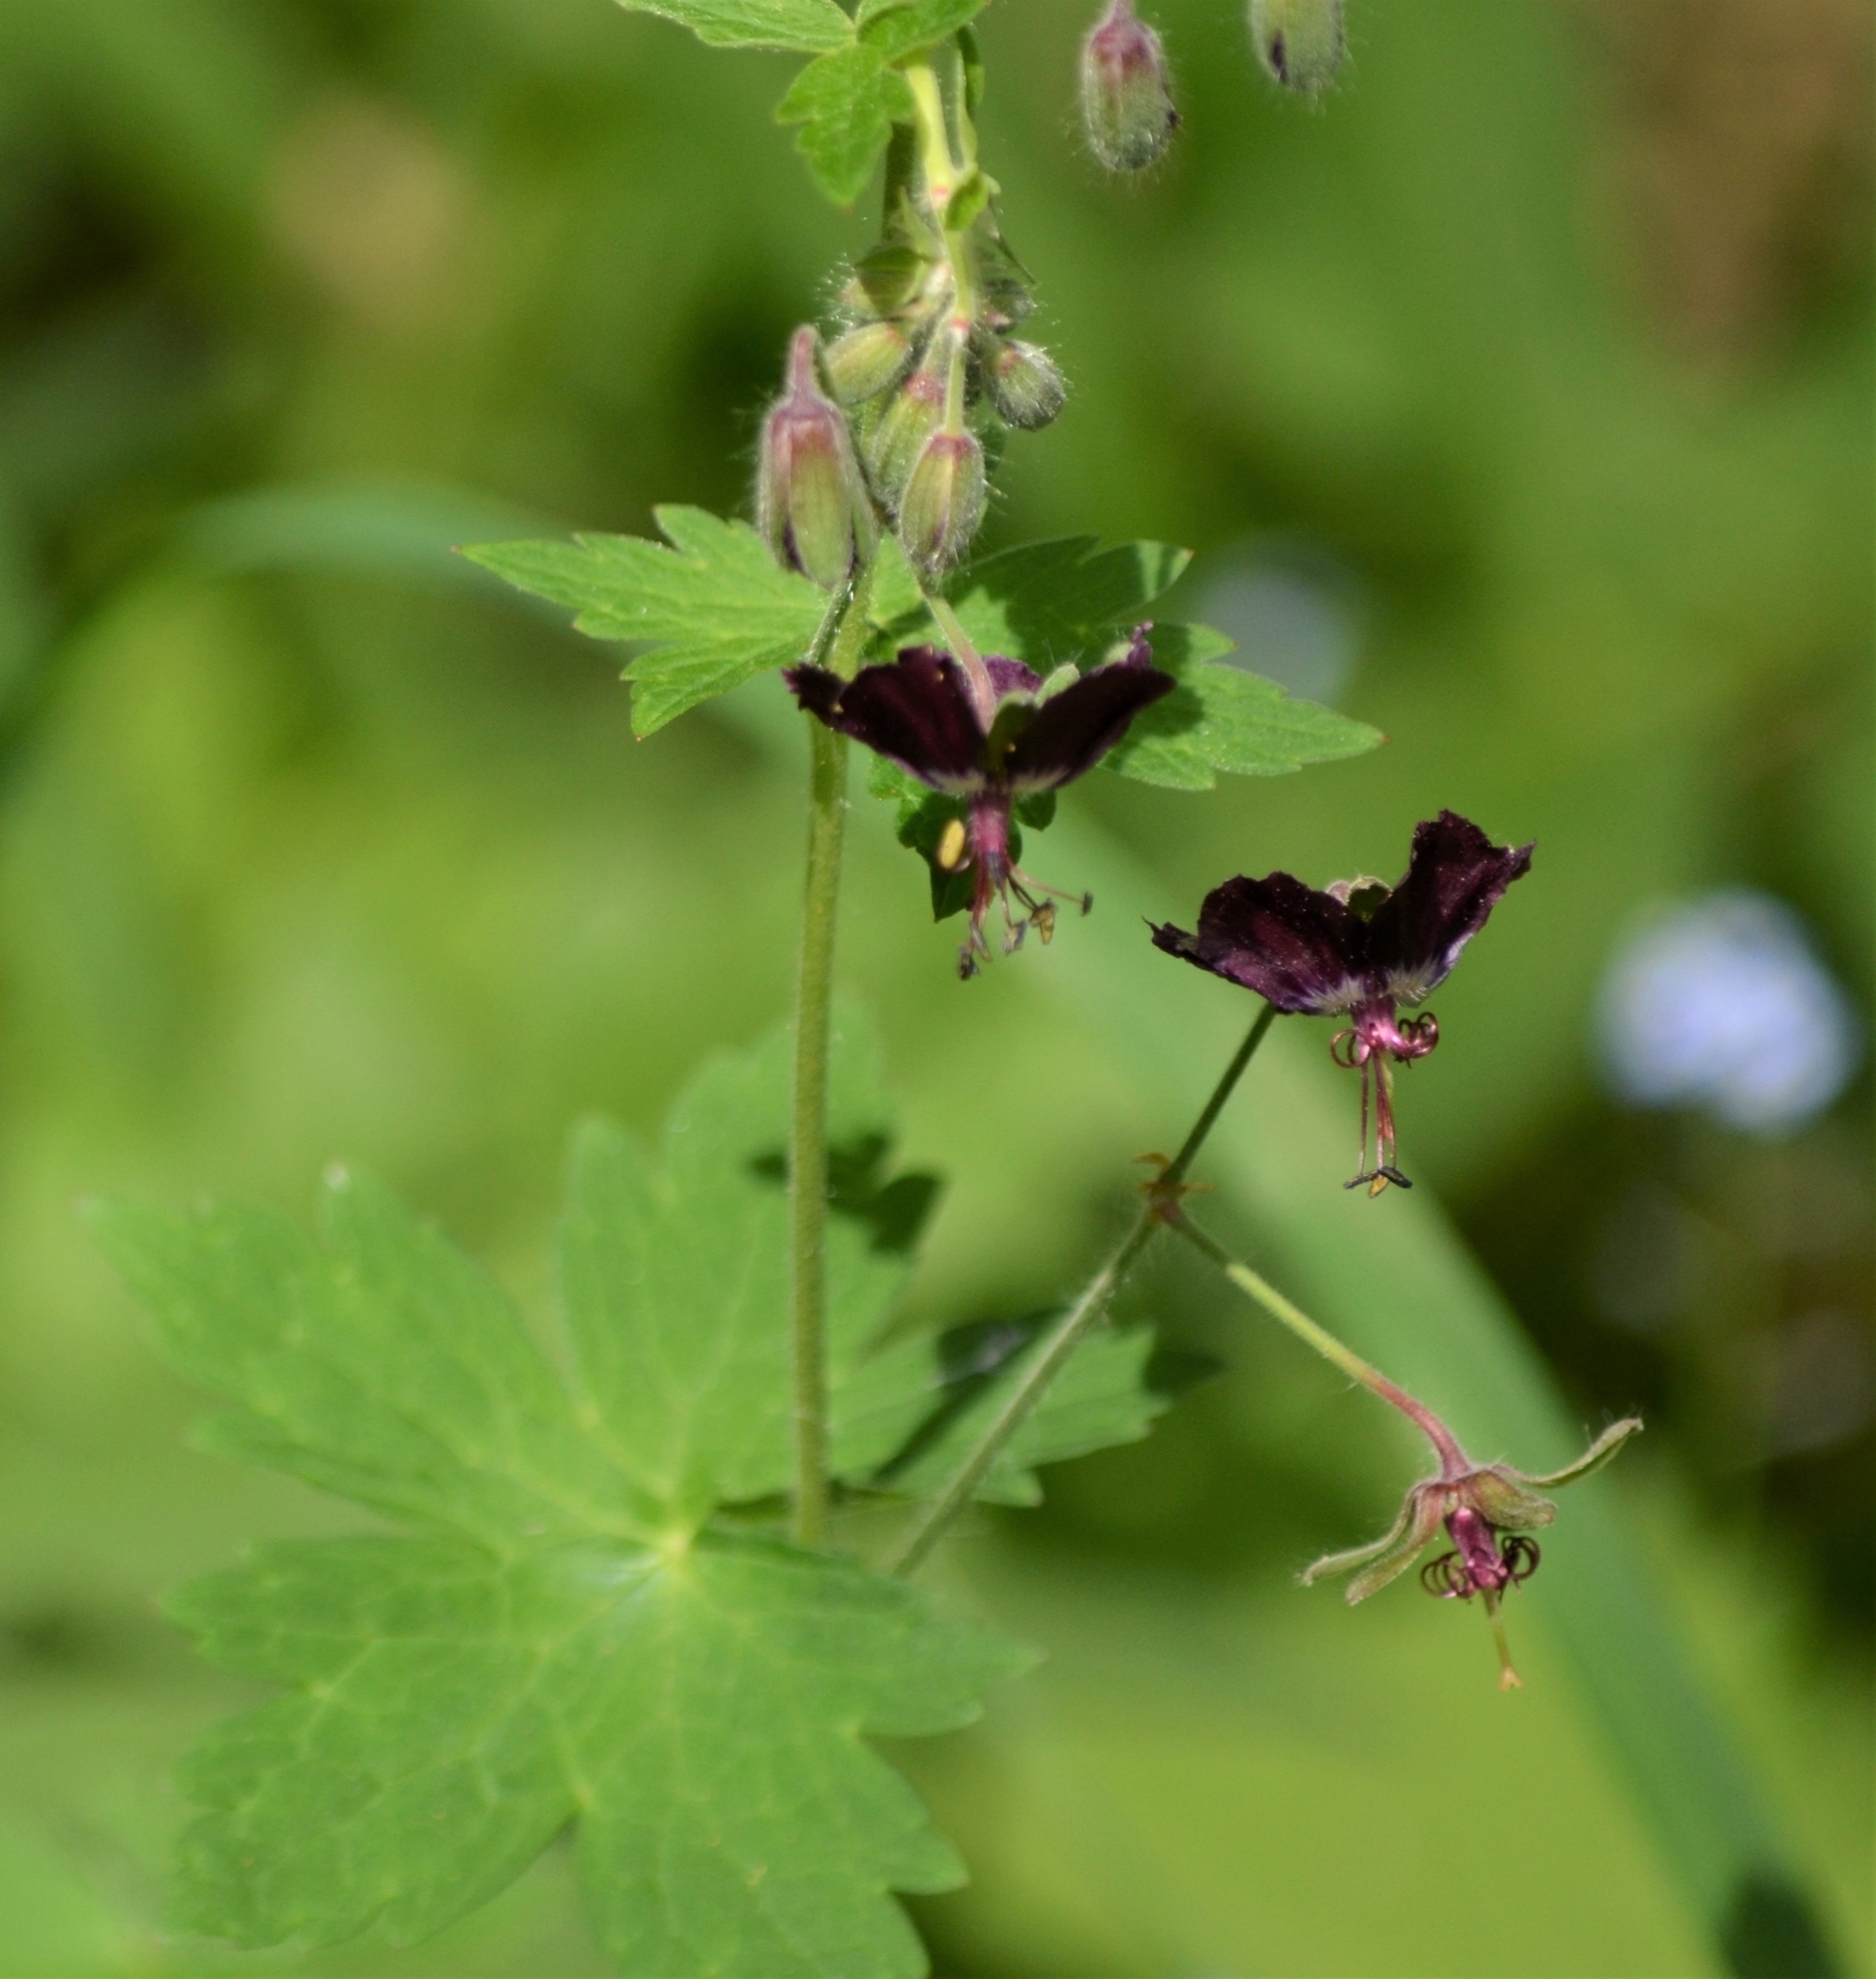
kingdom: Plantae
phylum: Tracheophyta
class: Magnoliopsida
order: Geraniales
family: Geraniaceae
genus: Geranium
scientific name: Geranium phaeum
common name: Dusky crane's-bill
